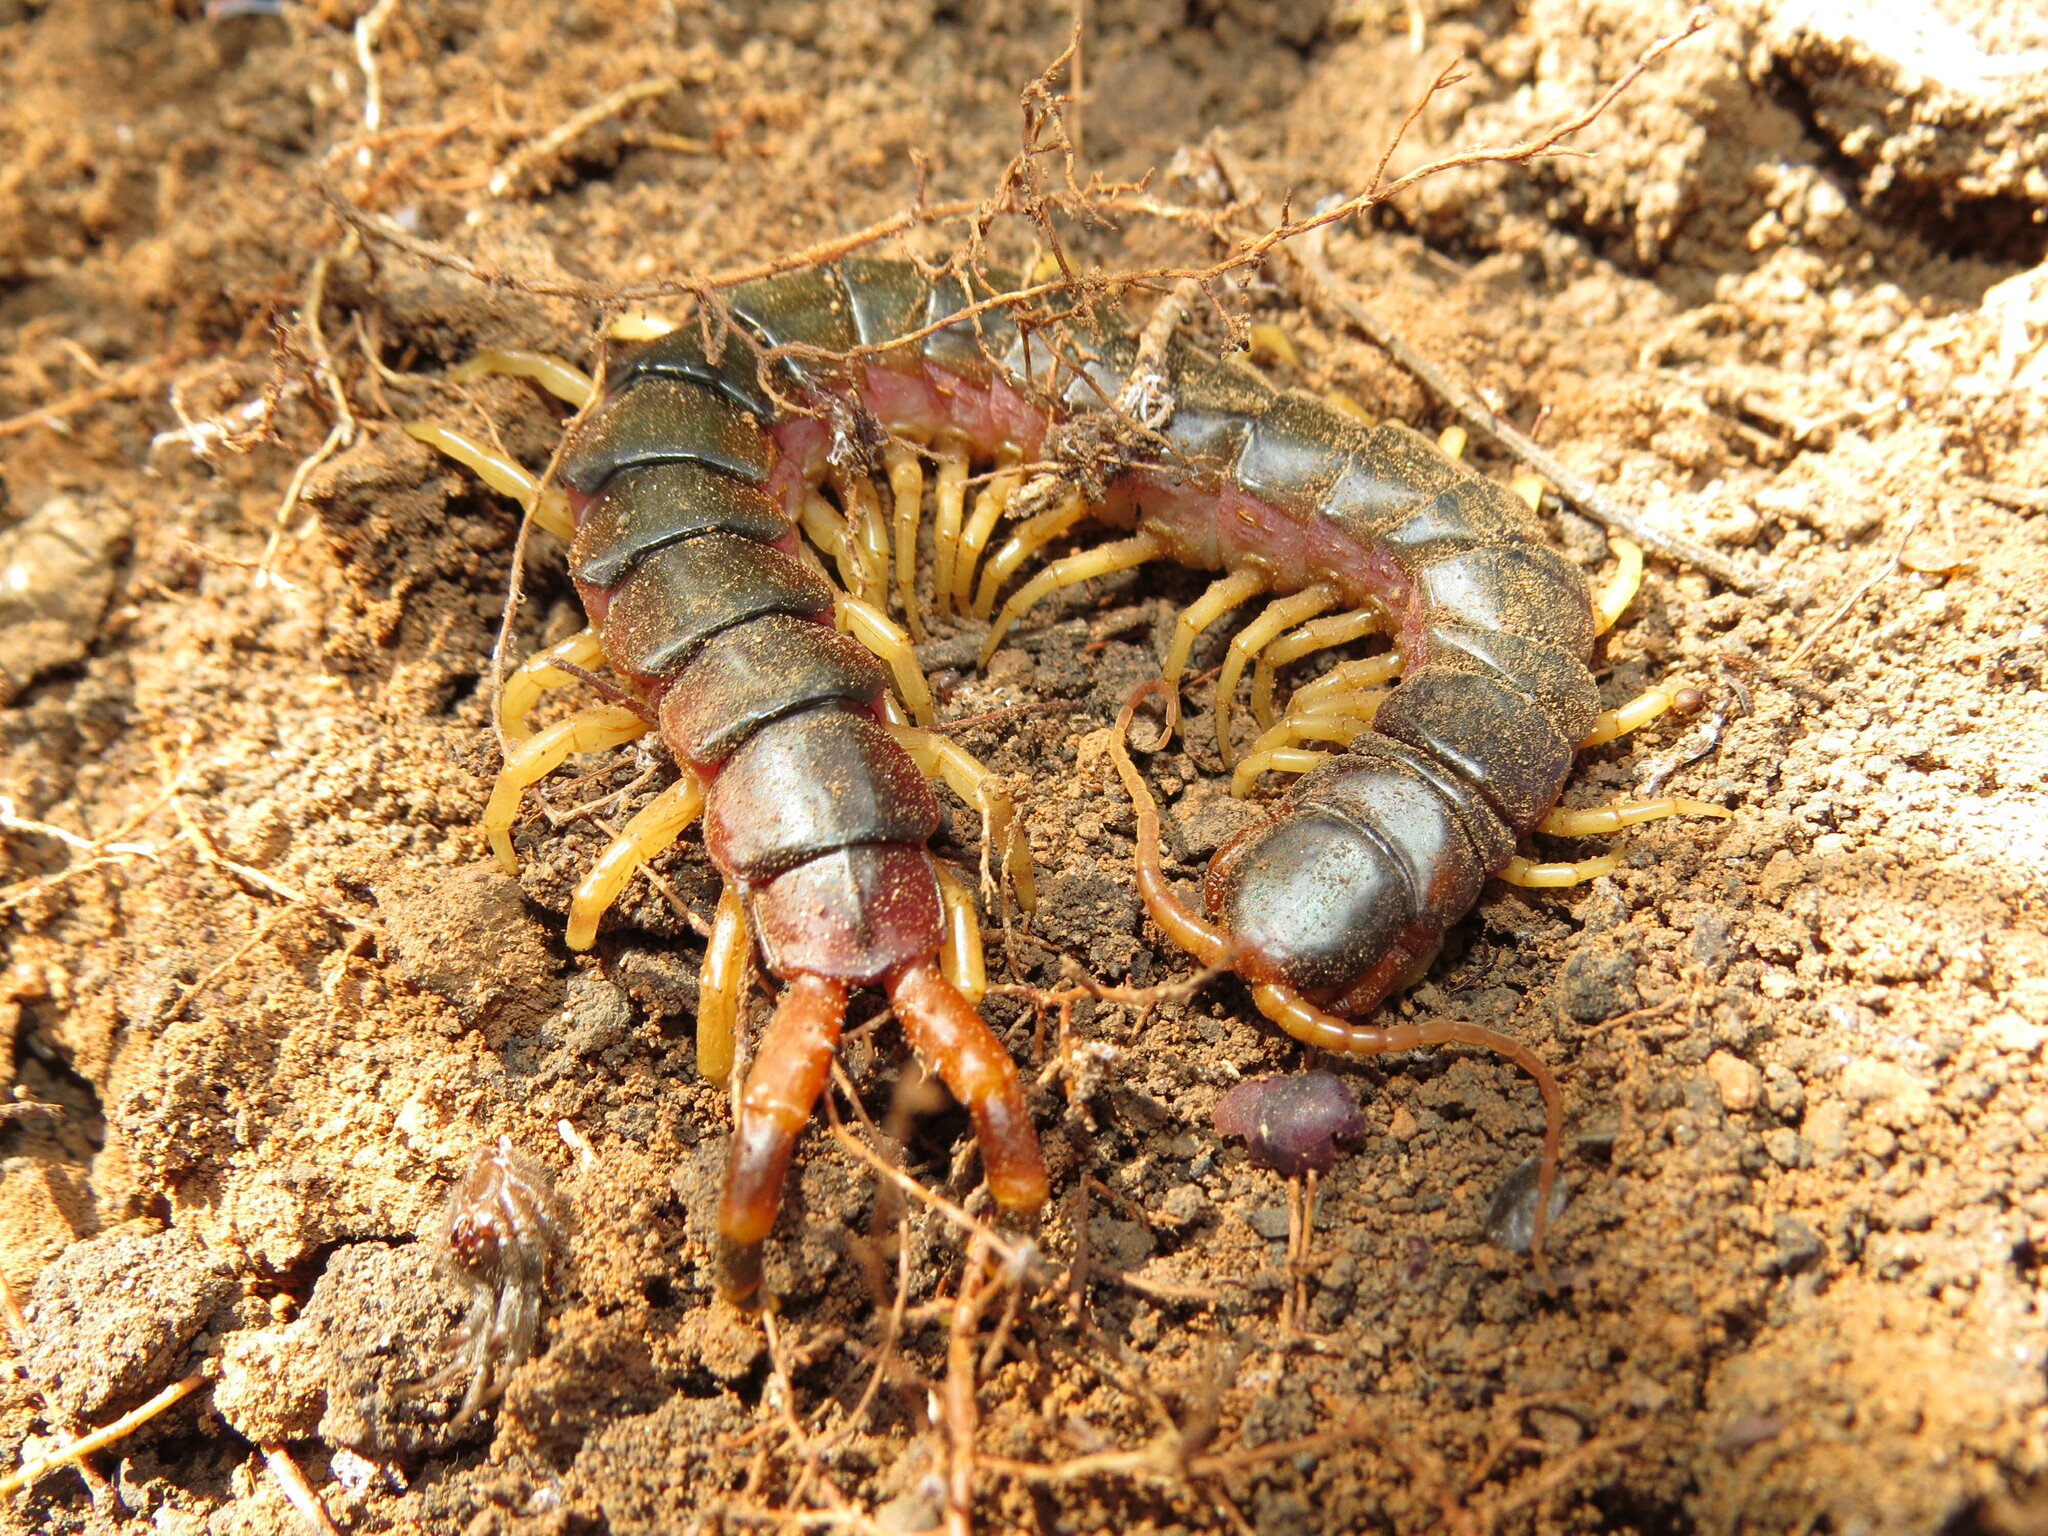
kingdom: Animalia
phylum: Arthropoda
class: Chilopoda
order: Scolopendromorpha
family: Scolopendridae
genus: Scolopendra
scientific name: Scolopendra viridicornis
